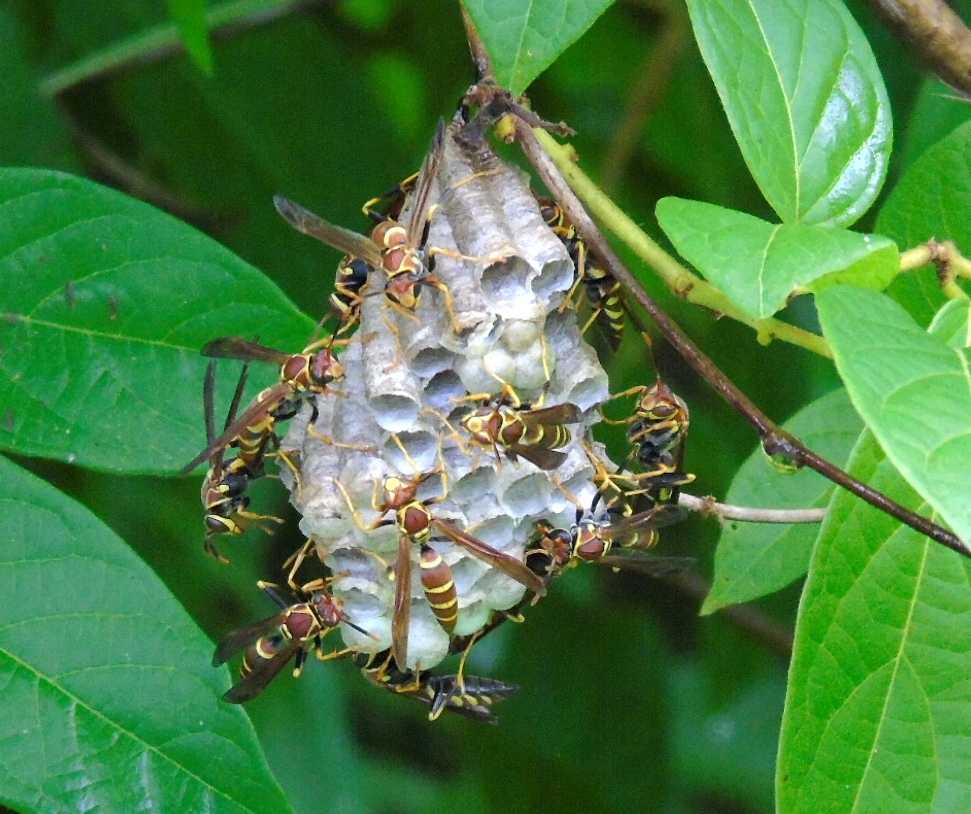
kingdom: Animalia
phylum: Arthropoda
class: Insecta
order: Hymenoptera
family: Eumenidae
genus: Polistes
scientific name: Polistes instabilis
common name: Unstable paper wasp
